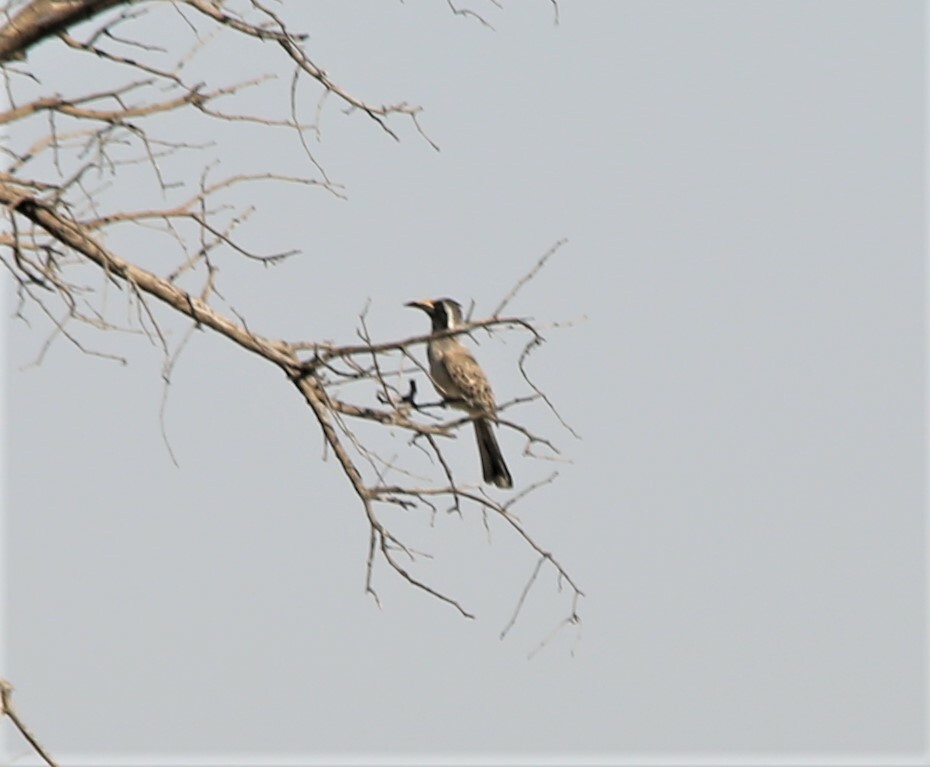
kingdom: Animalia
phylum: Chordata
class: Aves
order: Bucerotiformes
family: Bucerotidae
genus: Lophoceros
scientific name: Lophoceros nasutus
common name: African grey hornbill
